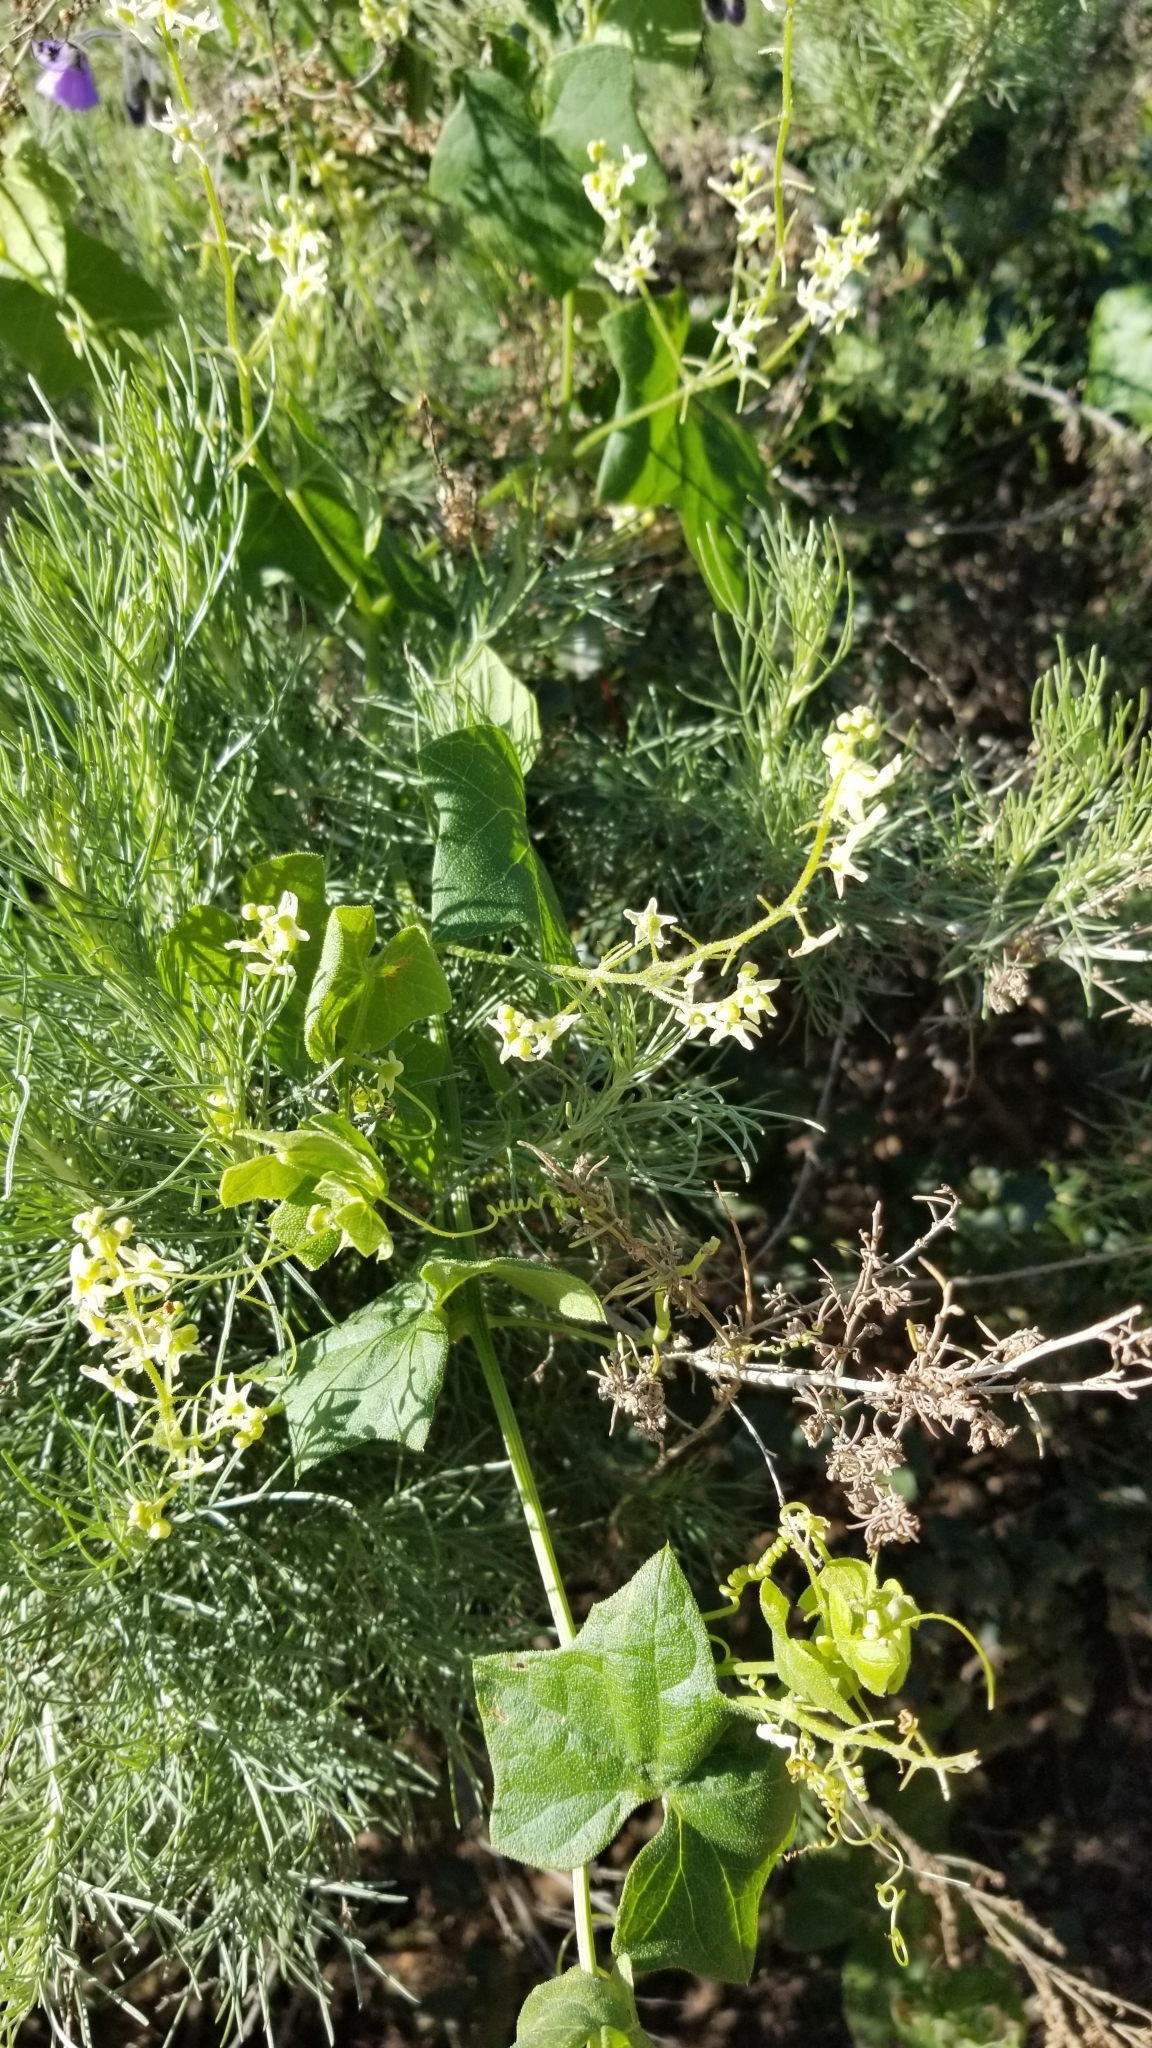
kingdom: Plantae
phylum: Tracheophyta
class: Magnoliopsida
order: Cucurbitales
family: Cucurbitaceae
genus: Marah
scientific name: Marah fabacea
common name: California manroot
